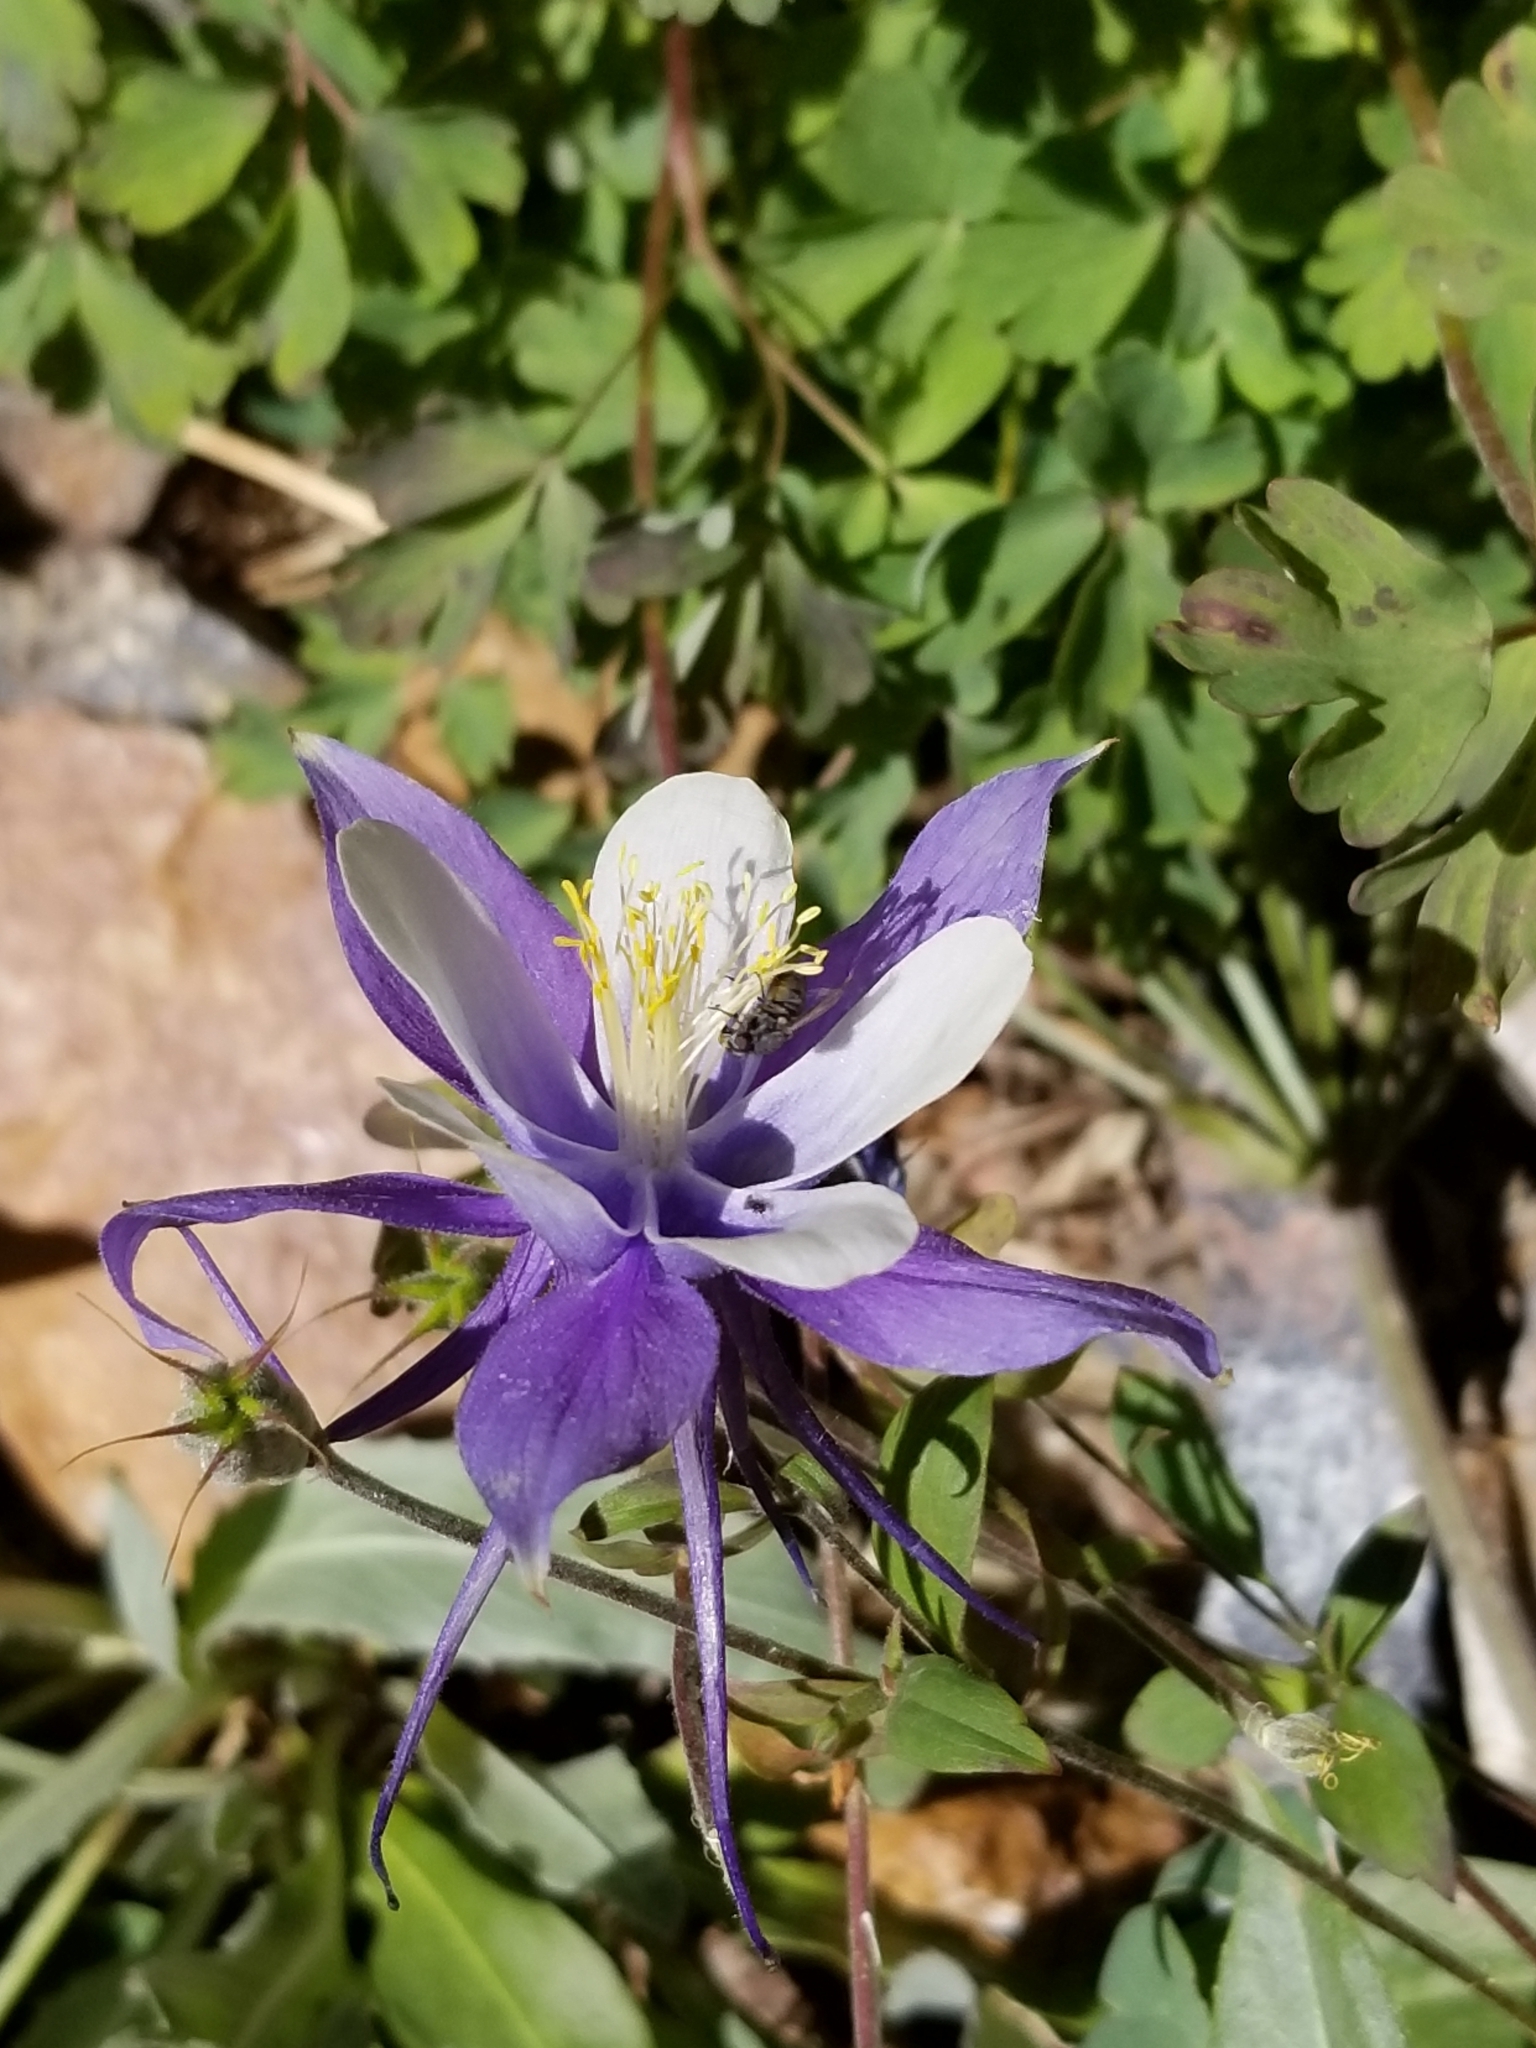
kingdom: Plantae
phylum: Tracheophyta
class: Magnoliopsida
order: Ranunculales
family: Ranunculaceae
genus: Aquilegia
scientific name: Aquilegia coerulea
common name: Rocky mountain columbine
